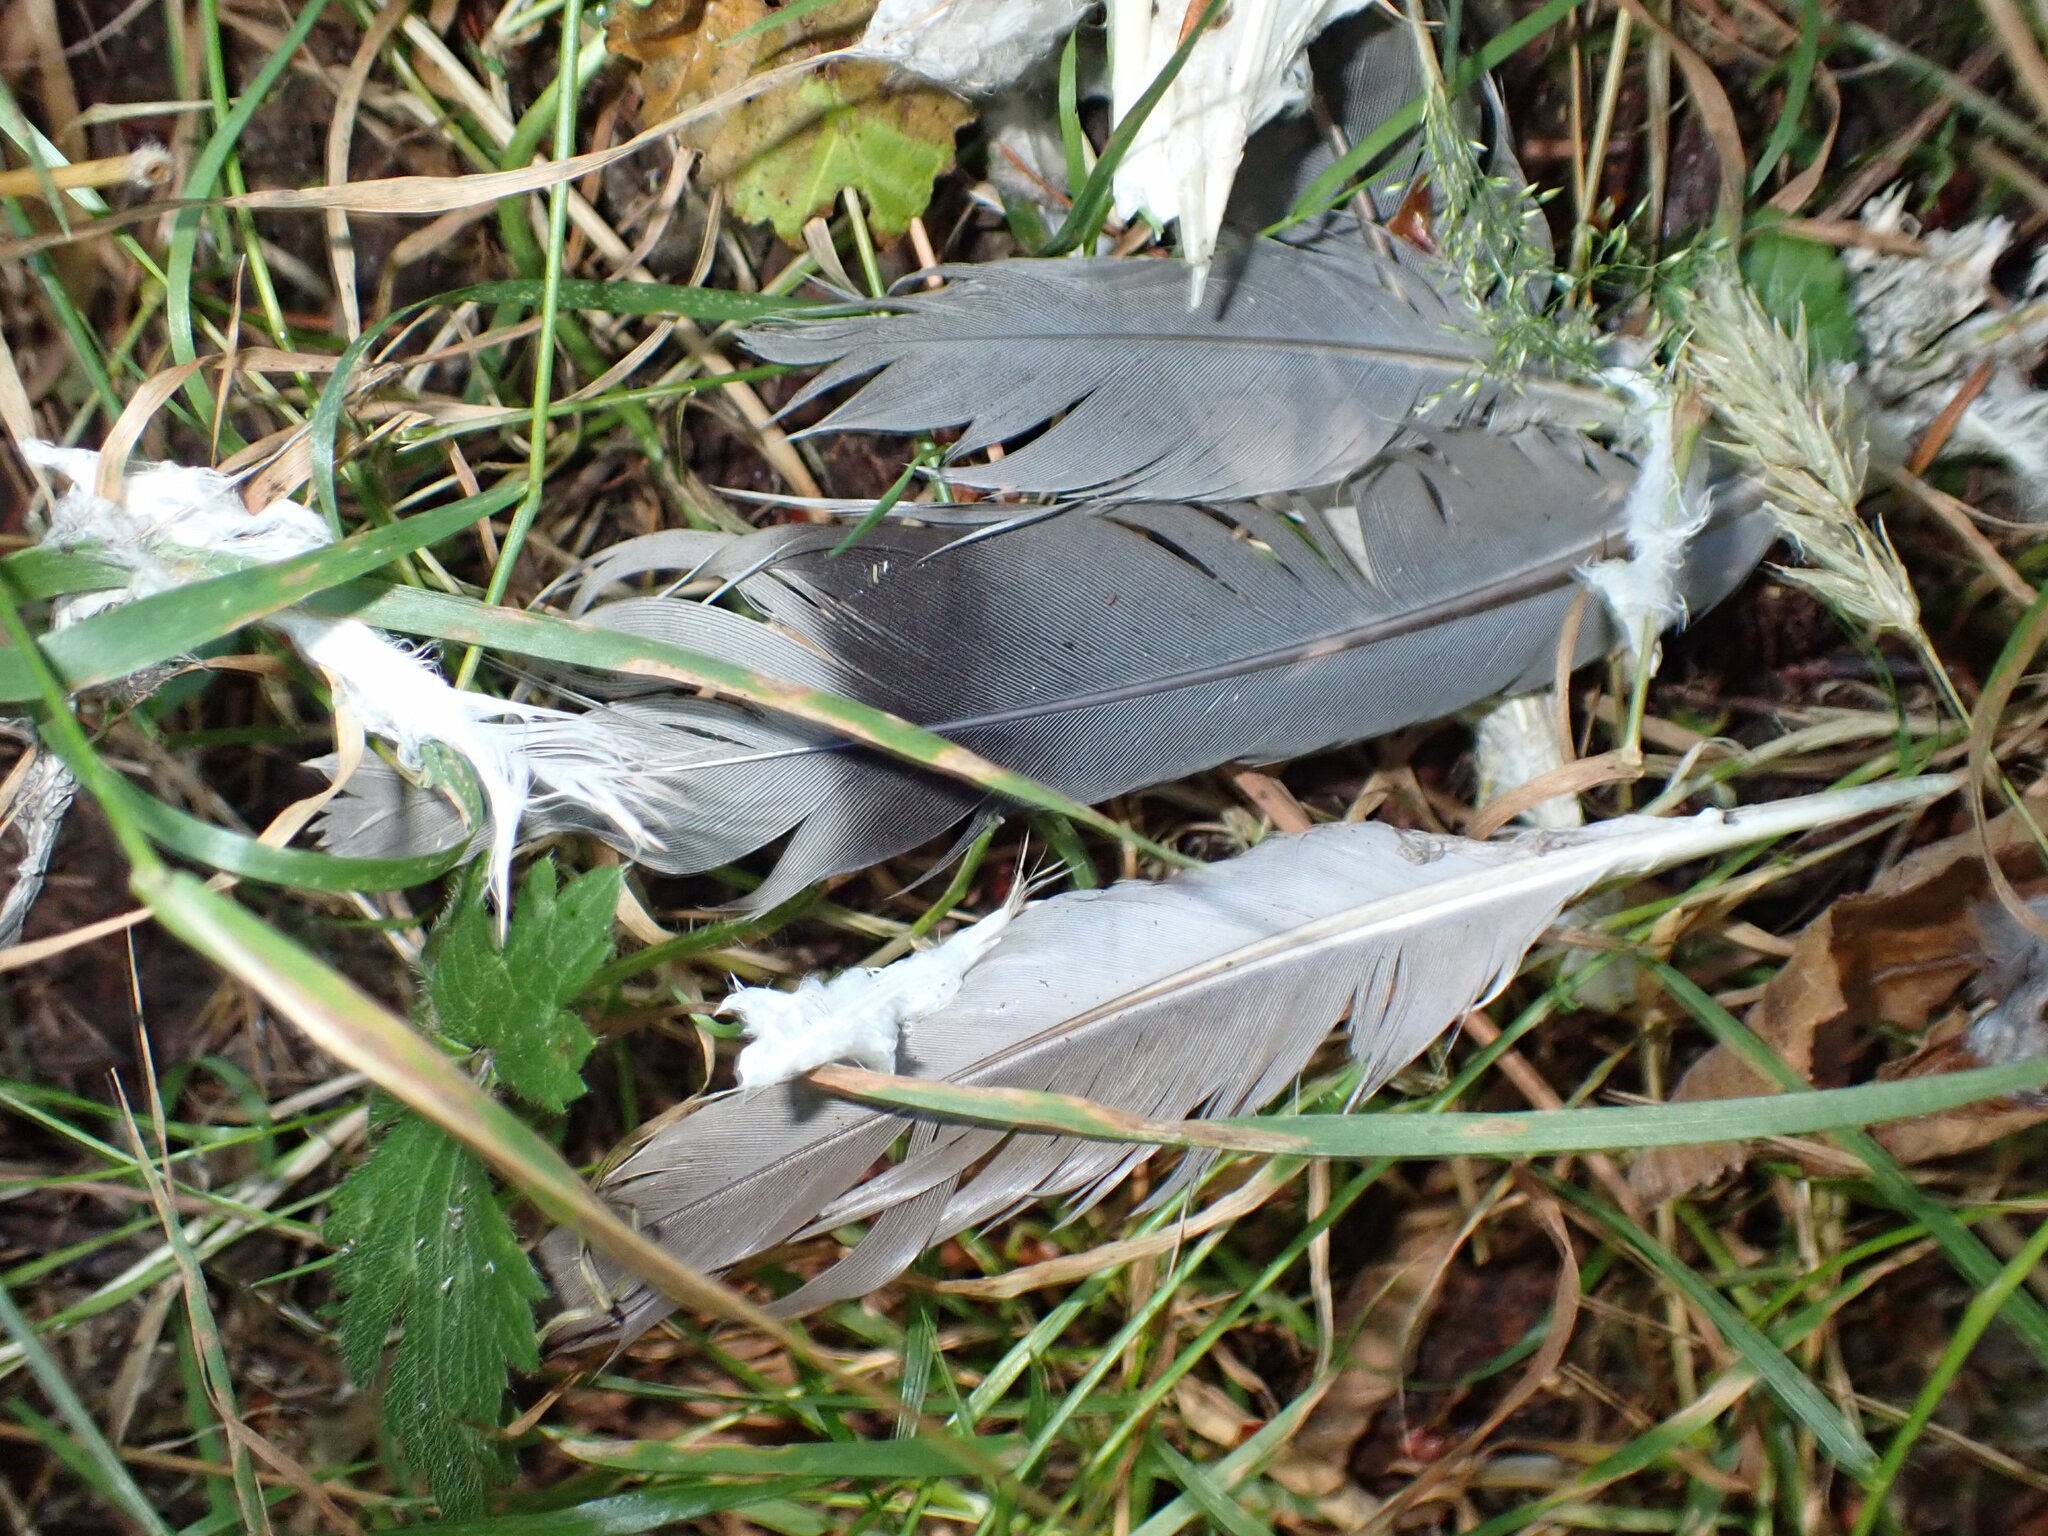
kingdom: Animalia
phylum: Chordata
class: Aves
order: Columbiformes
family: Columbidae
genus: Patagioenas
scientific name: Patagioenas fasciata
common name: Band-tailed pigeon
